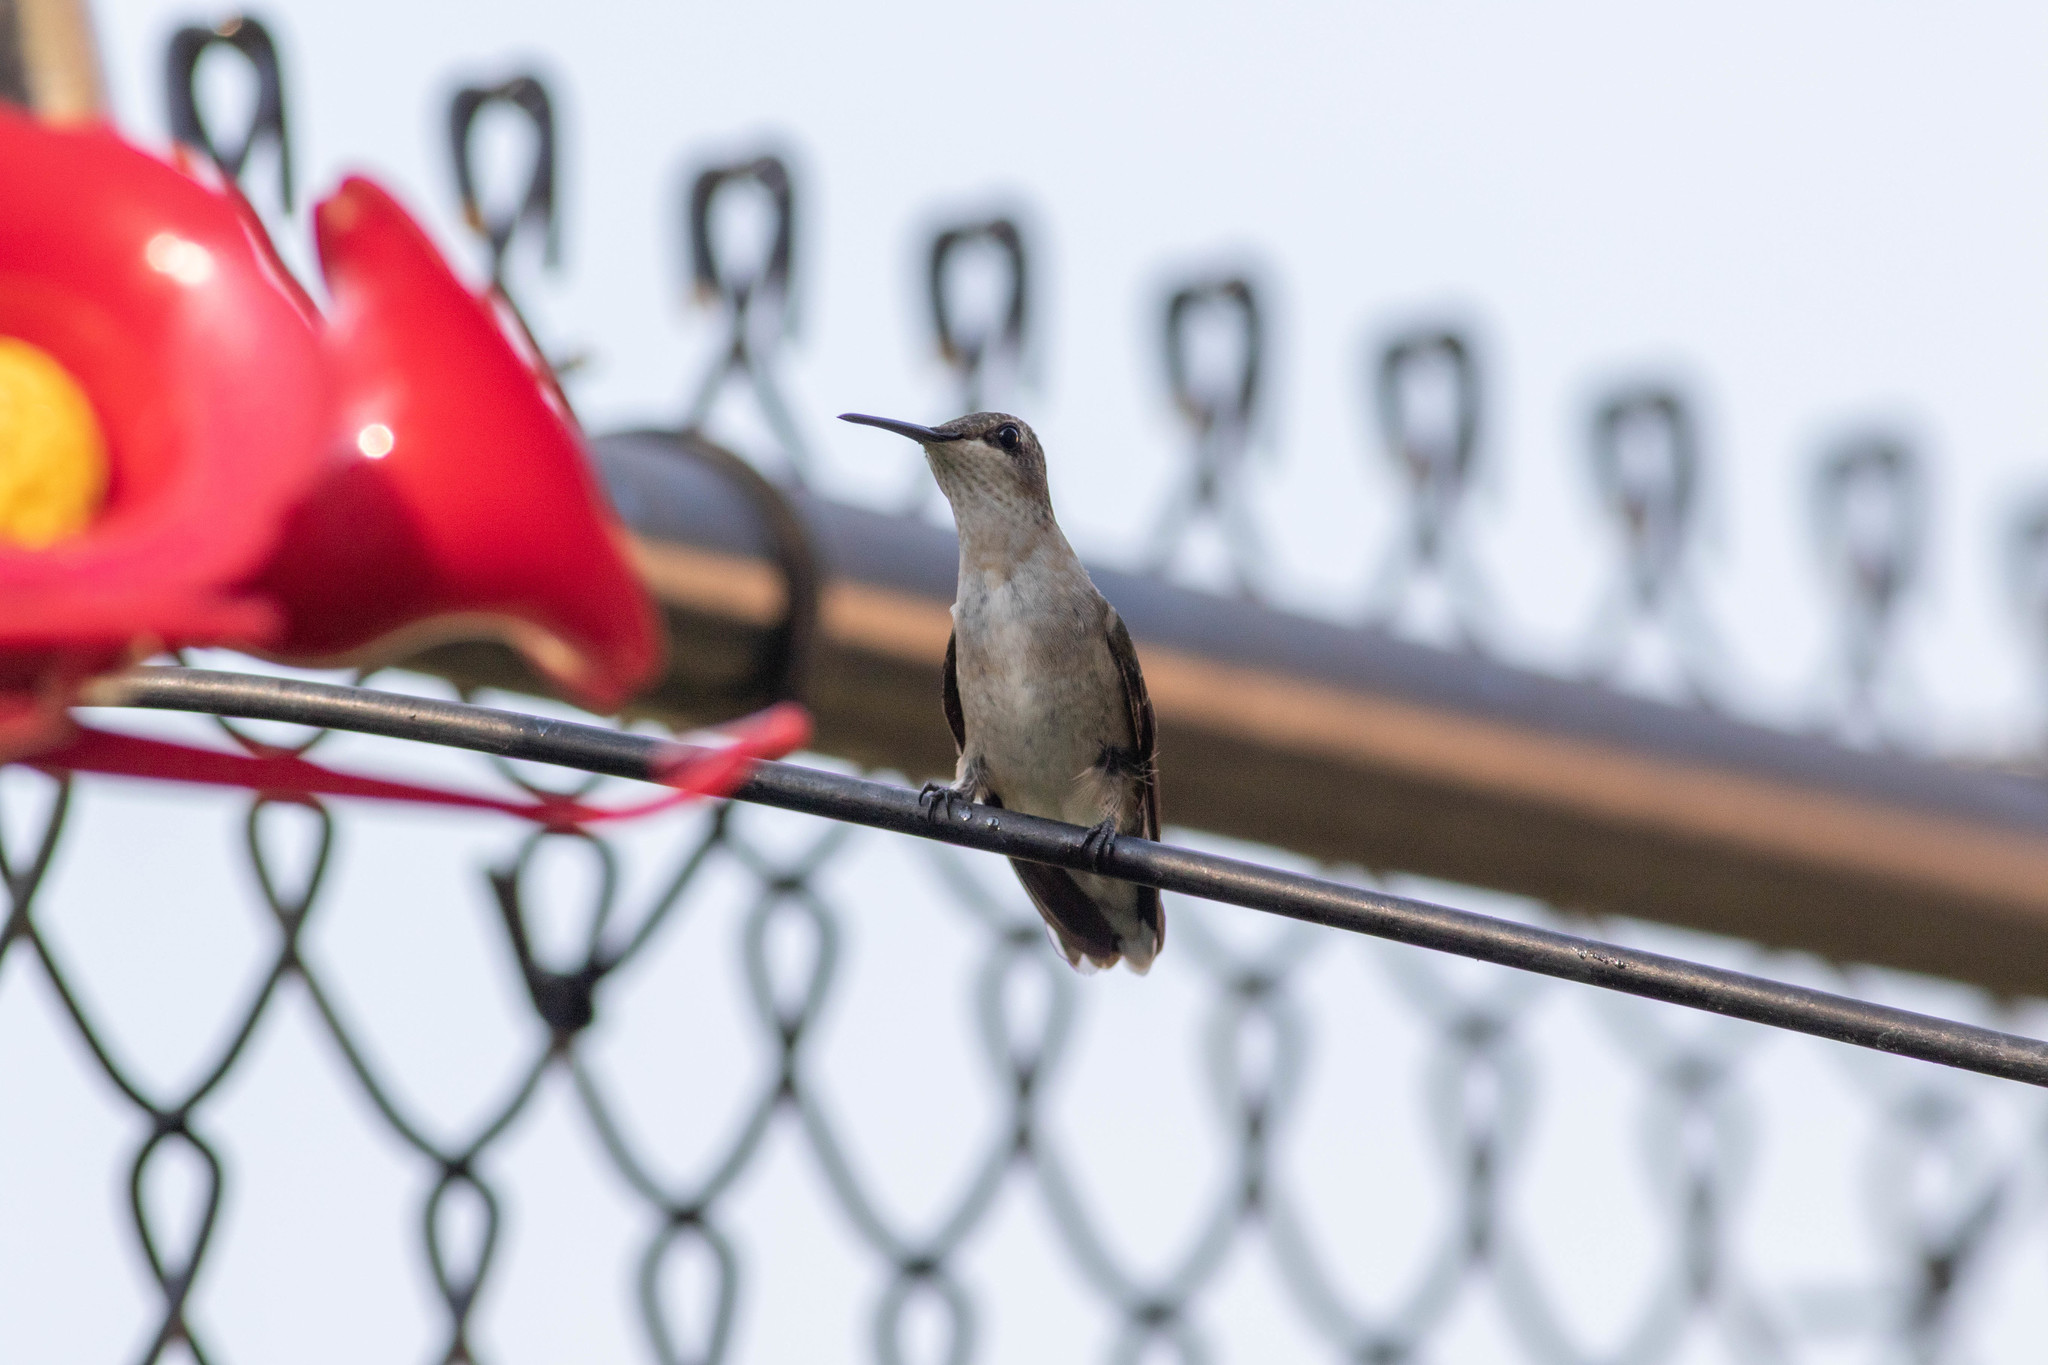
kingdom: Animalia
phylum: Chordata
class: Aves
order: Apodiformes
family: Trochilidae
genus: Archilochus
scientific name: Archilochus colubris
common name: Ruby-throated hummingbird
